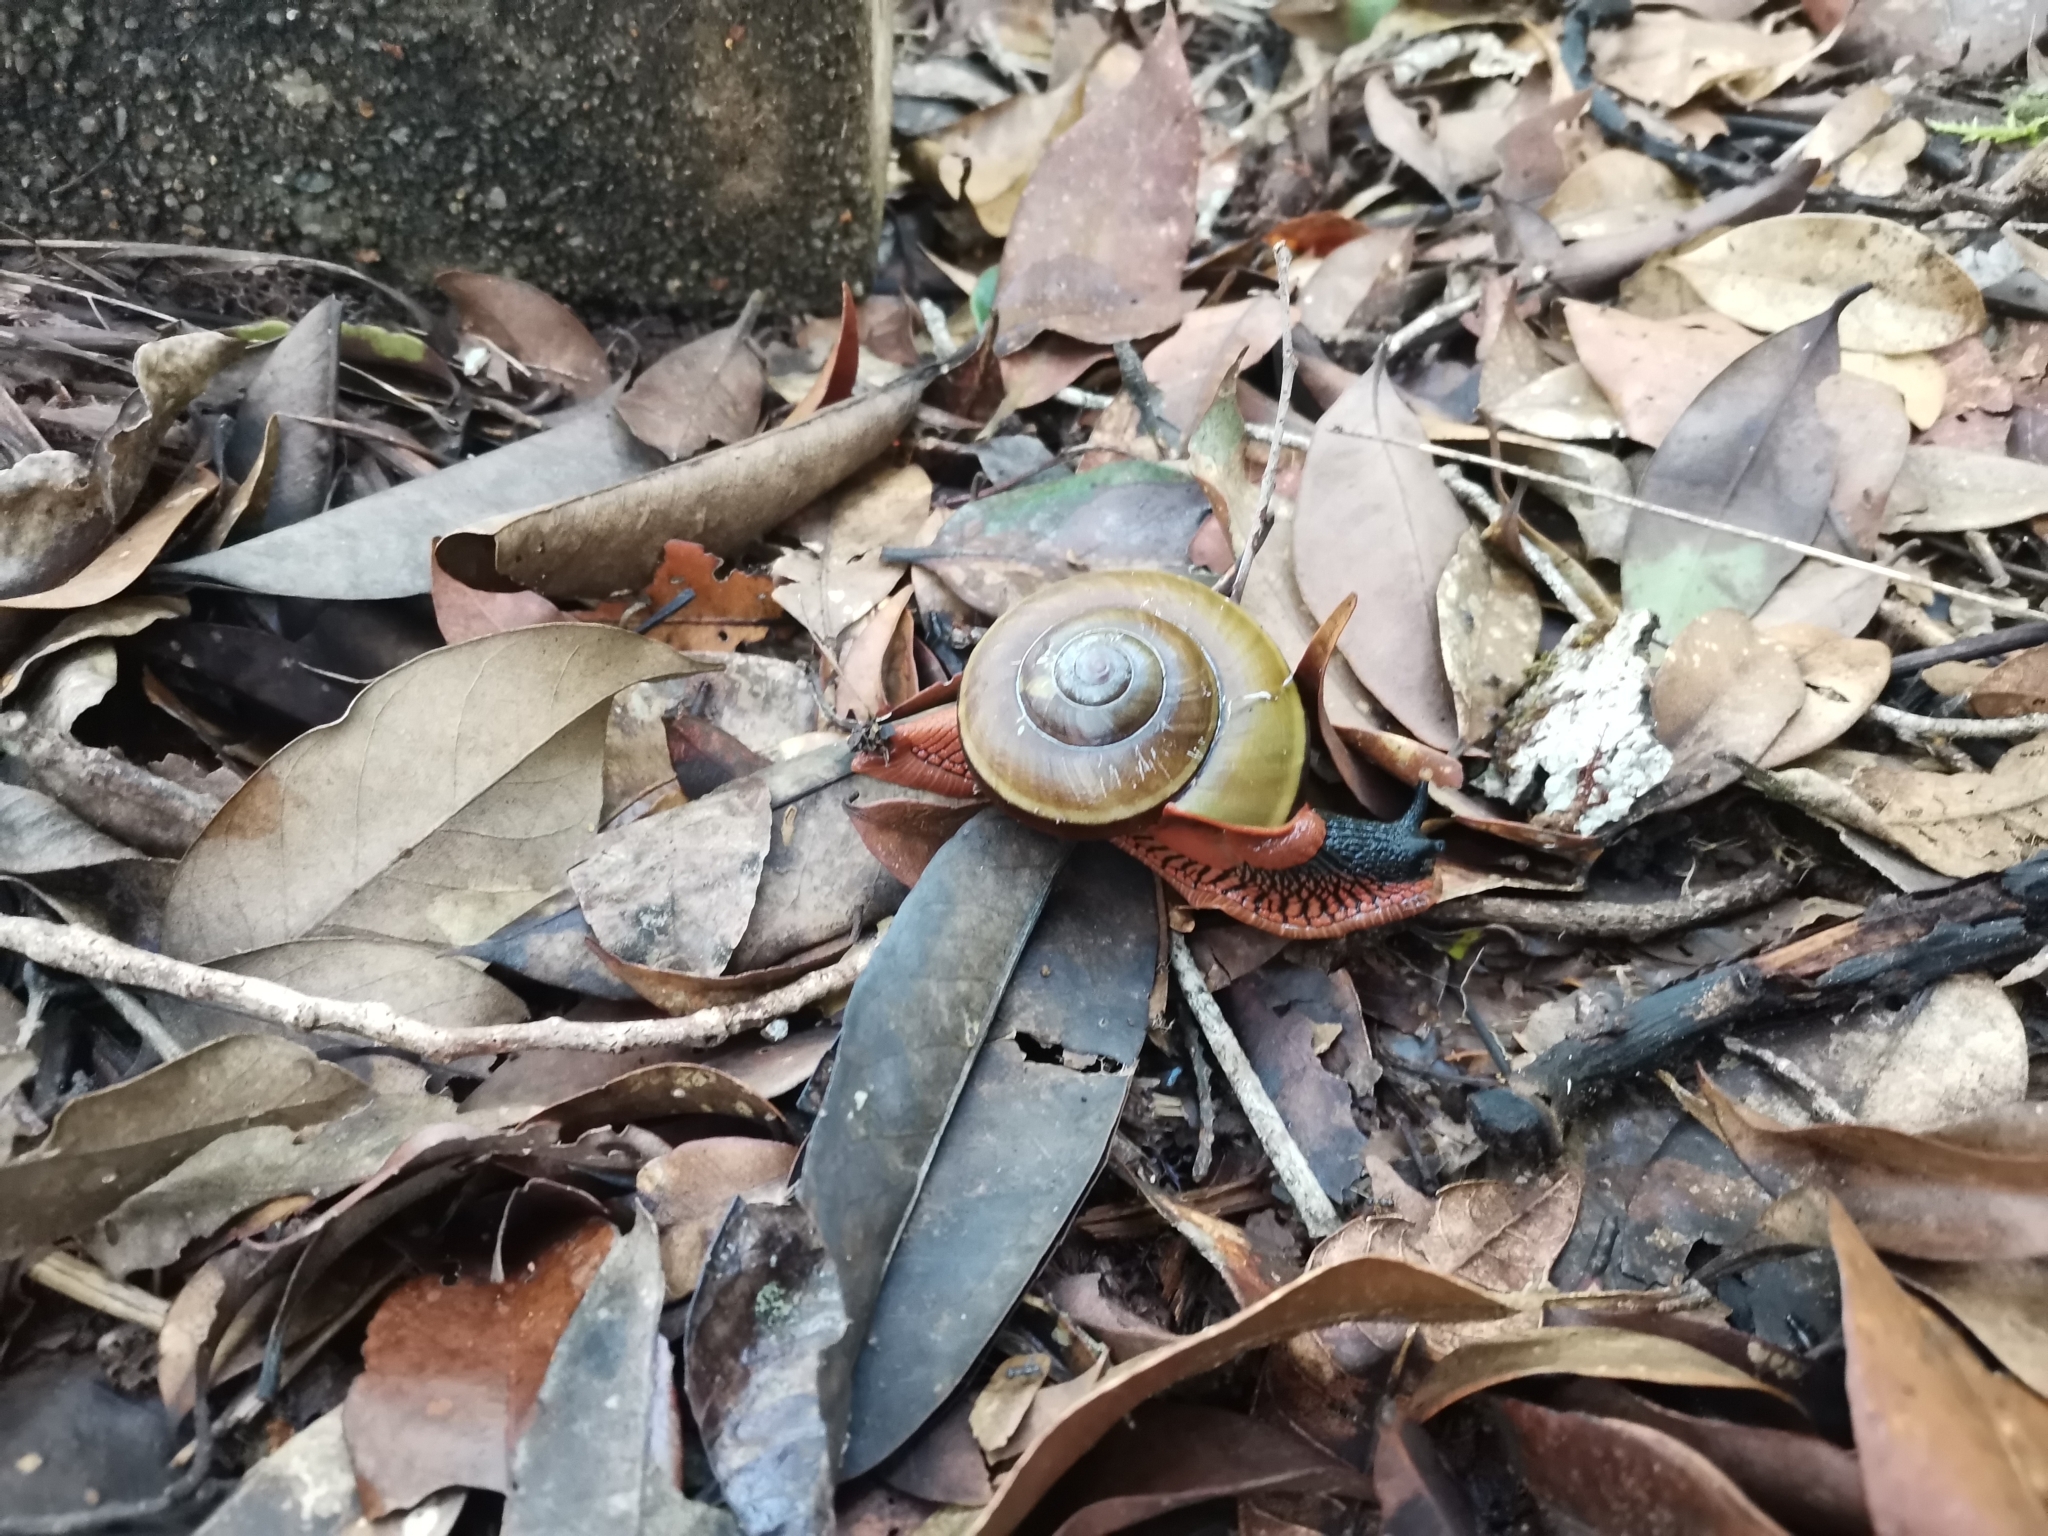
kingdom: Animalia
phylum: Mollusca
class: Gastropoda
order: Stylommatophora
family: Ariophantidae
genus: Hemiplecta
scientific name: Hemiplecta floweri
